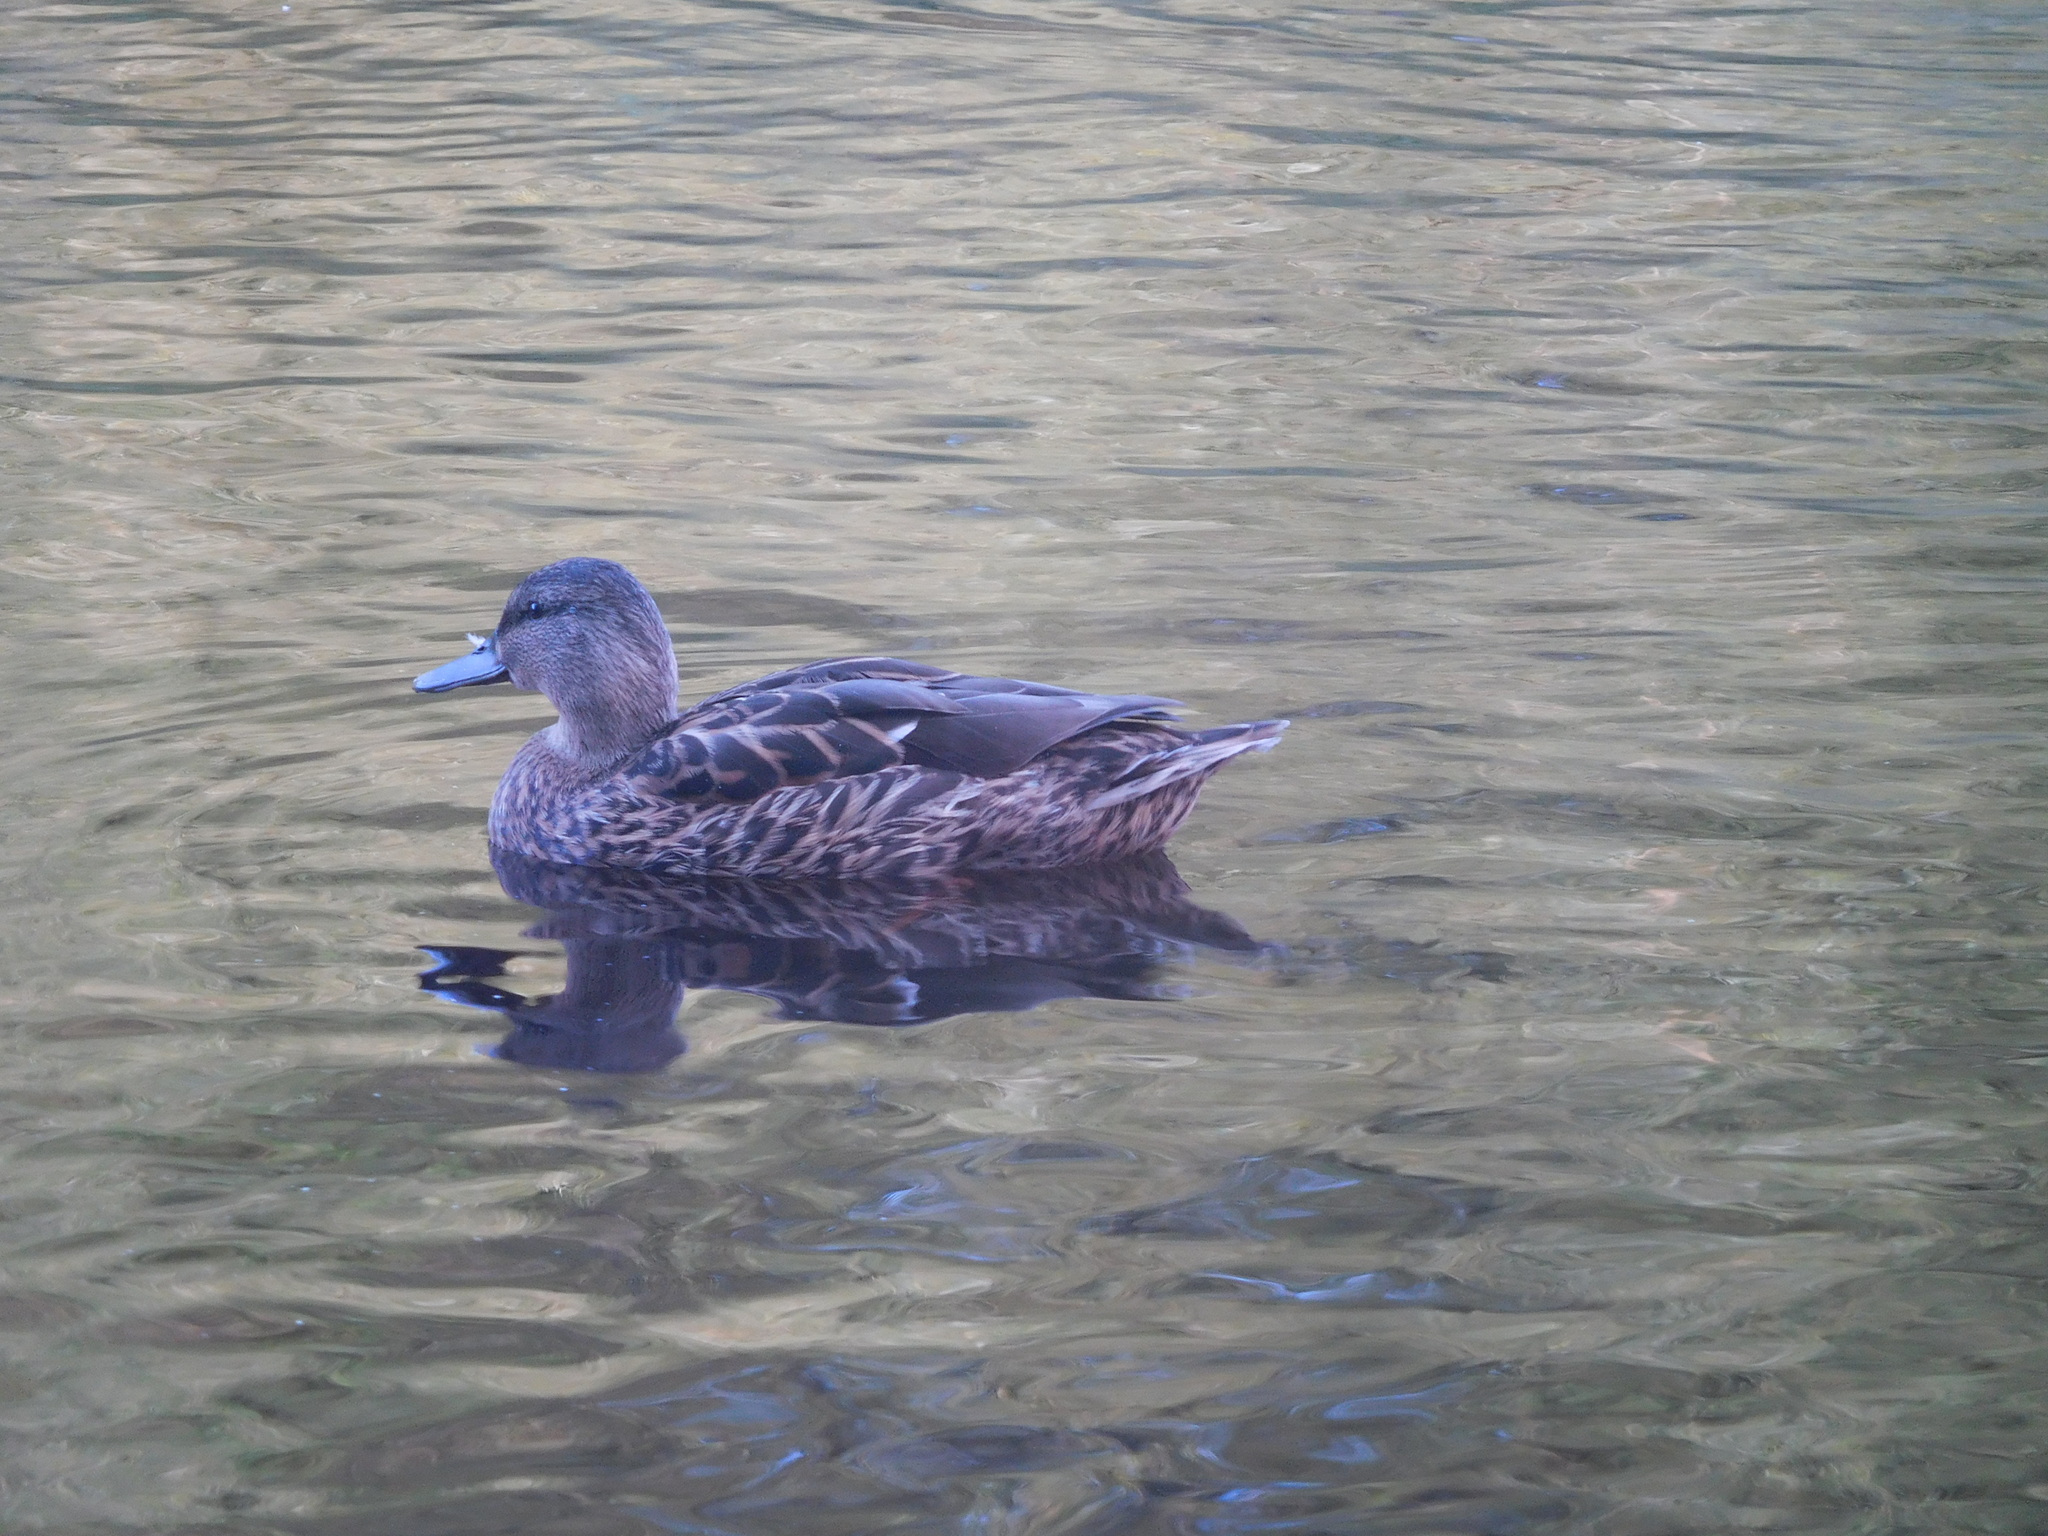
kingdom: Animalia
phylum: Chordata
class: Aves
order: Anseriformes
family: Anatidae
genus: Anas
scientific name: Anas platyrhynchos
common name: Mallard
